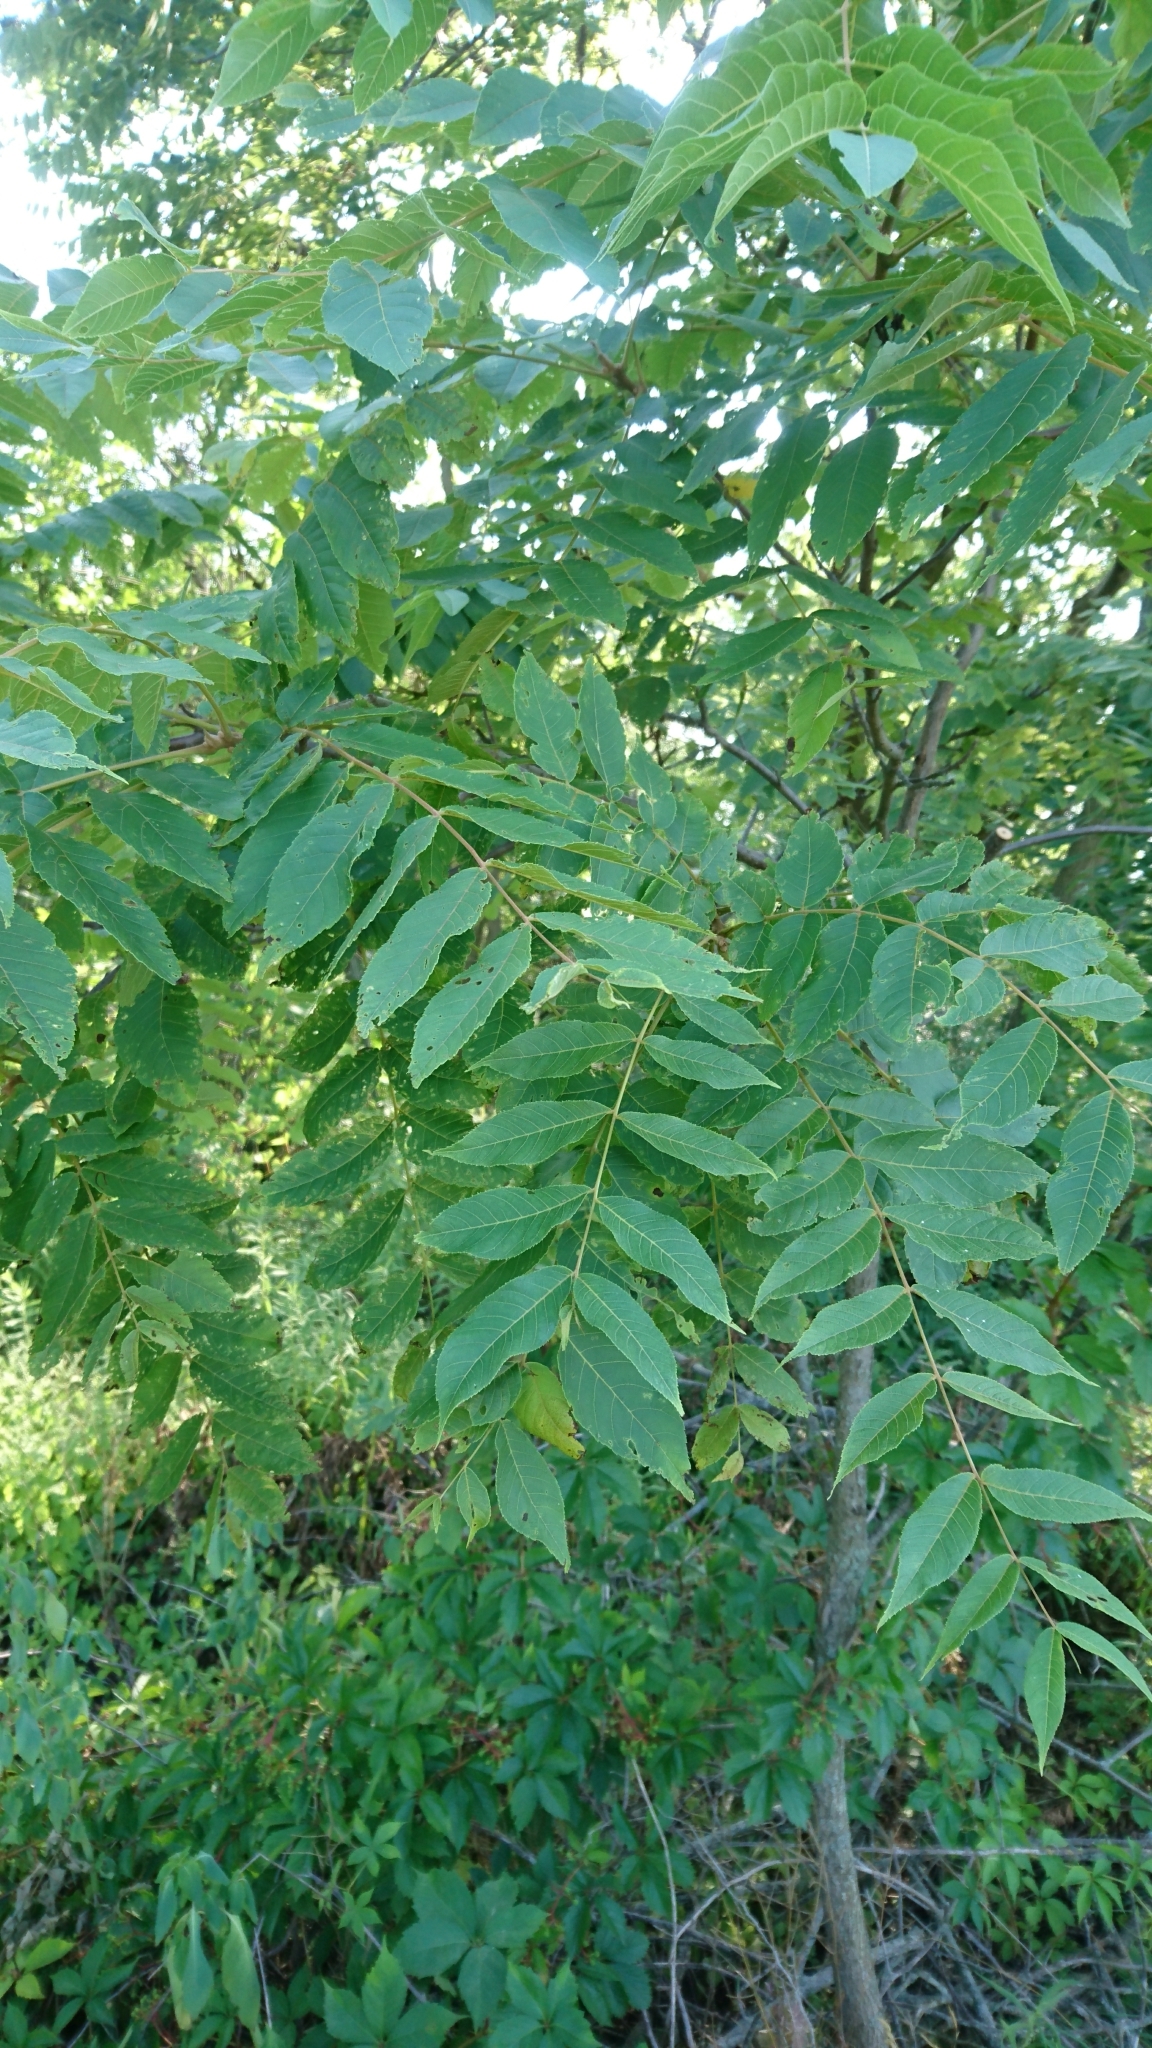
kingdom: Plantae
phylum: Tracheophyta
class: Magnoliopsida
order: Fagales
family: Juglandaceae
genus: Juglans
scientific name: Juglans nigra
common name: Black walnut
